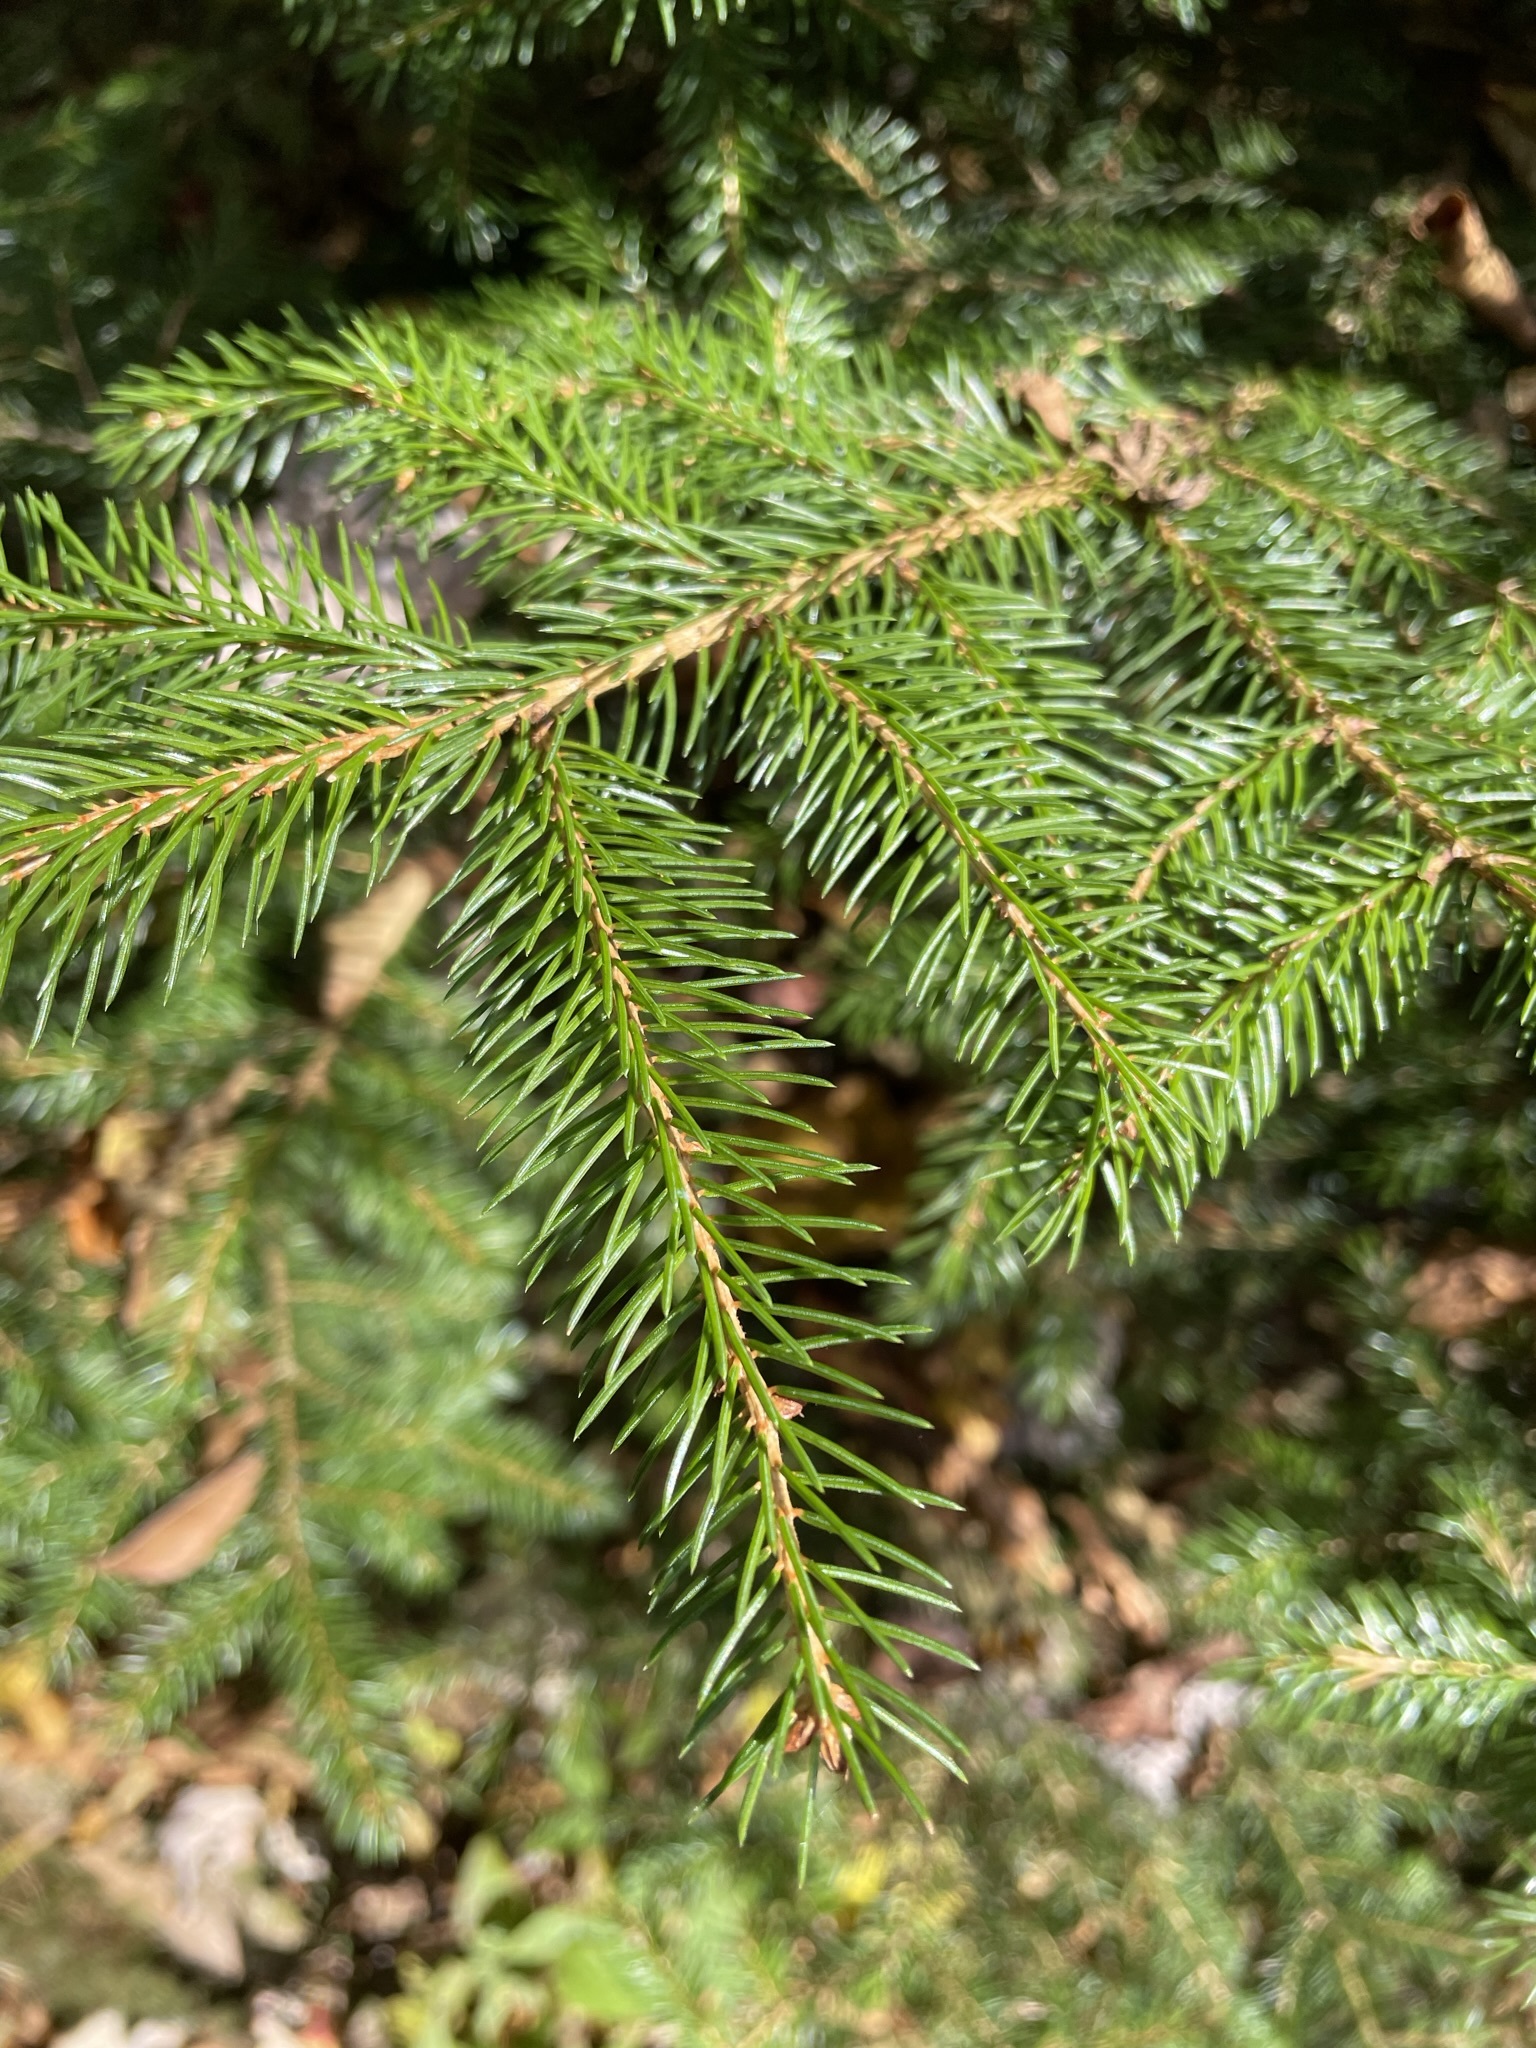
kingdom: Plantae
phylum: Tracheophyta
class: Pinopsida
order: Pinales
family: Pinaceae
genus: Picea
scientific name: Picea rubens
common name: Red spruce
